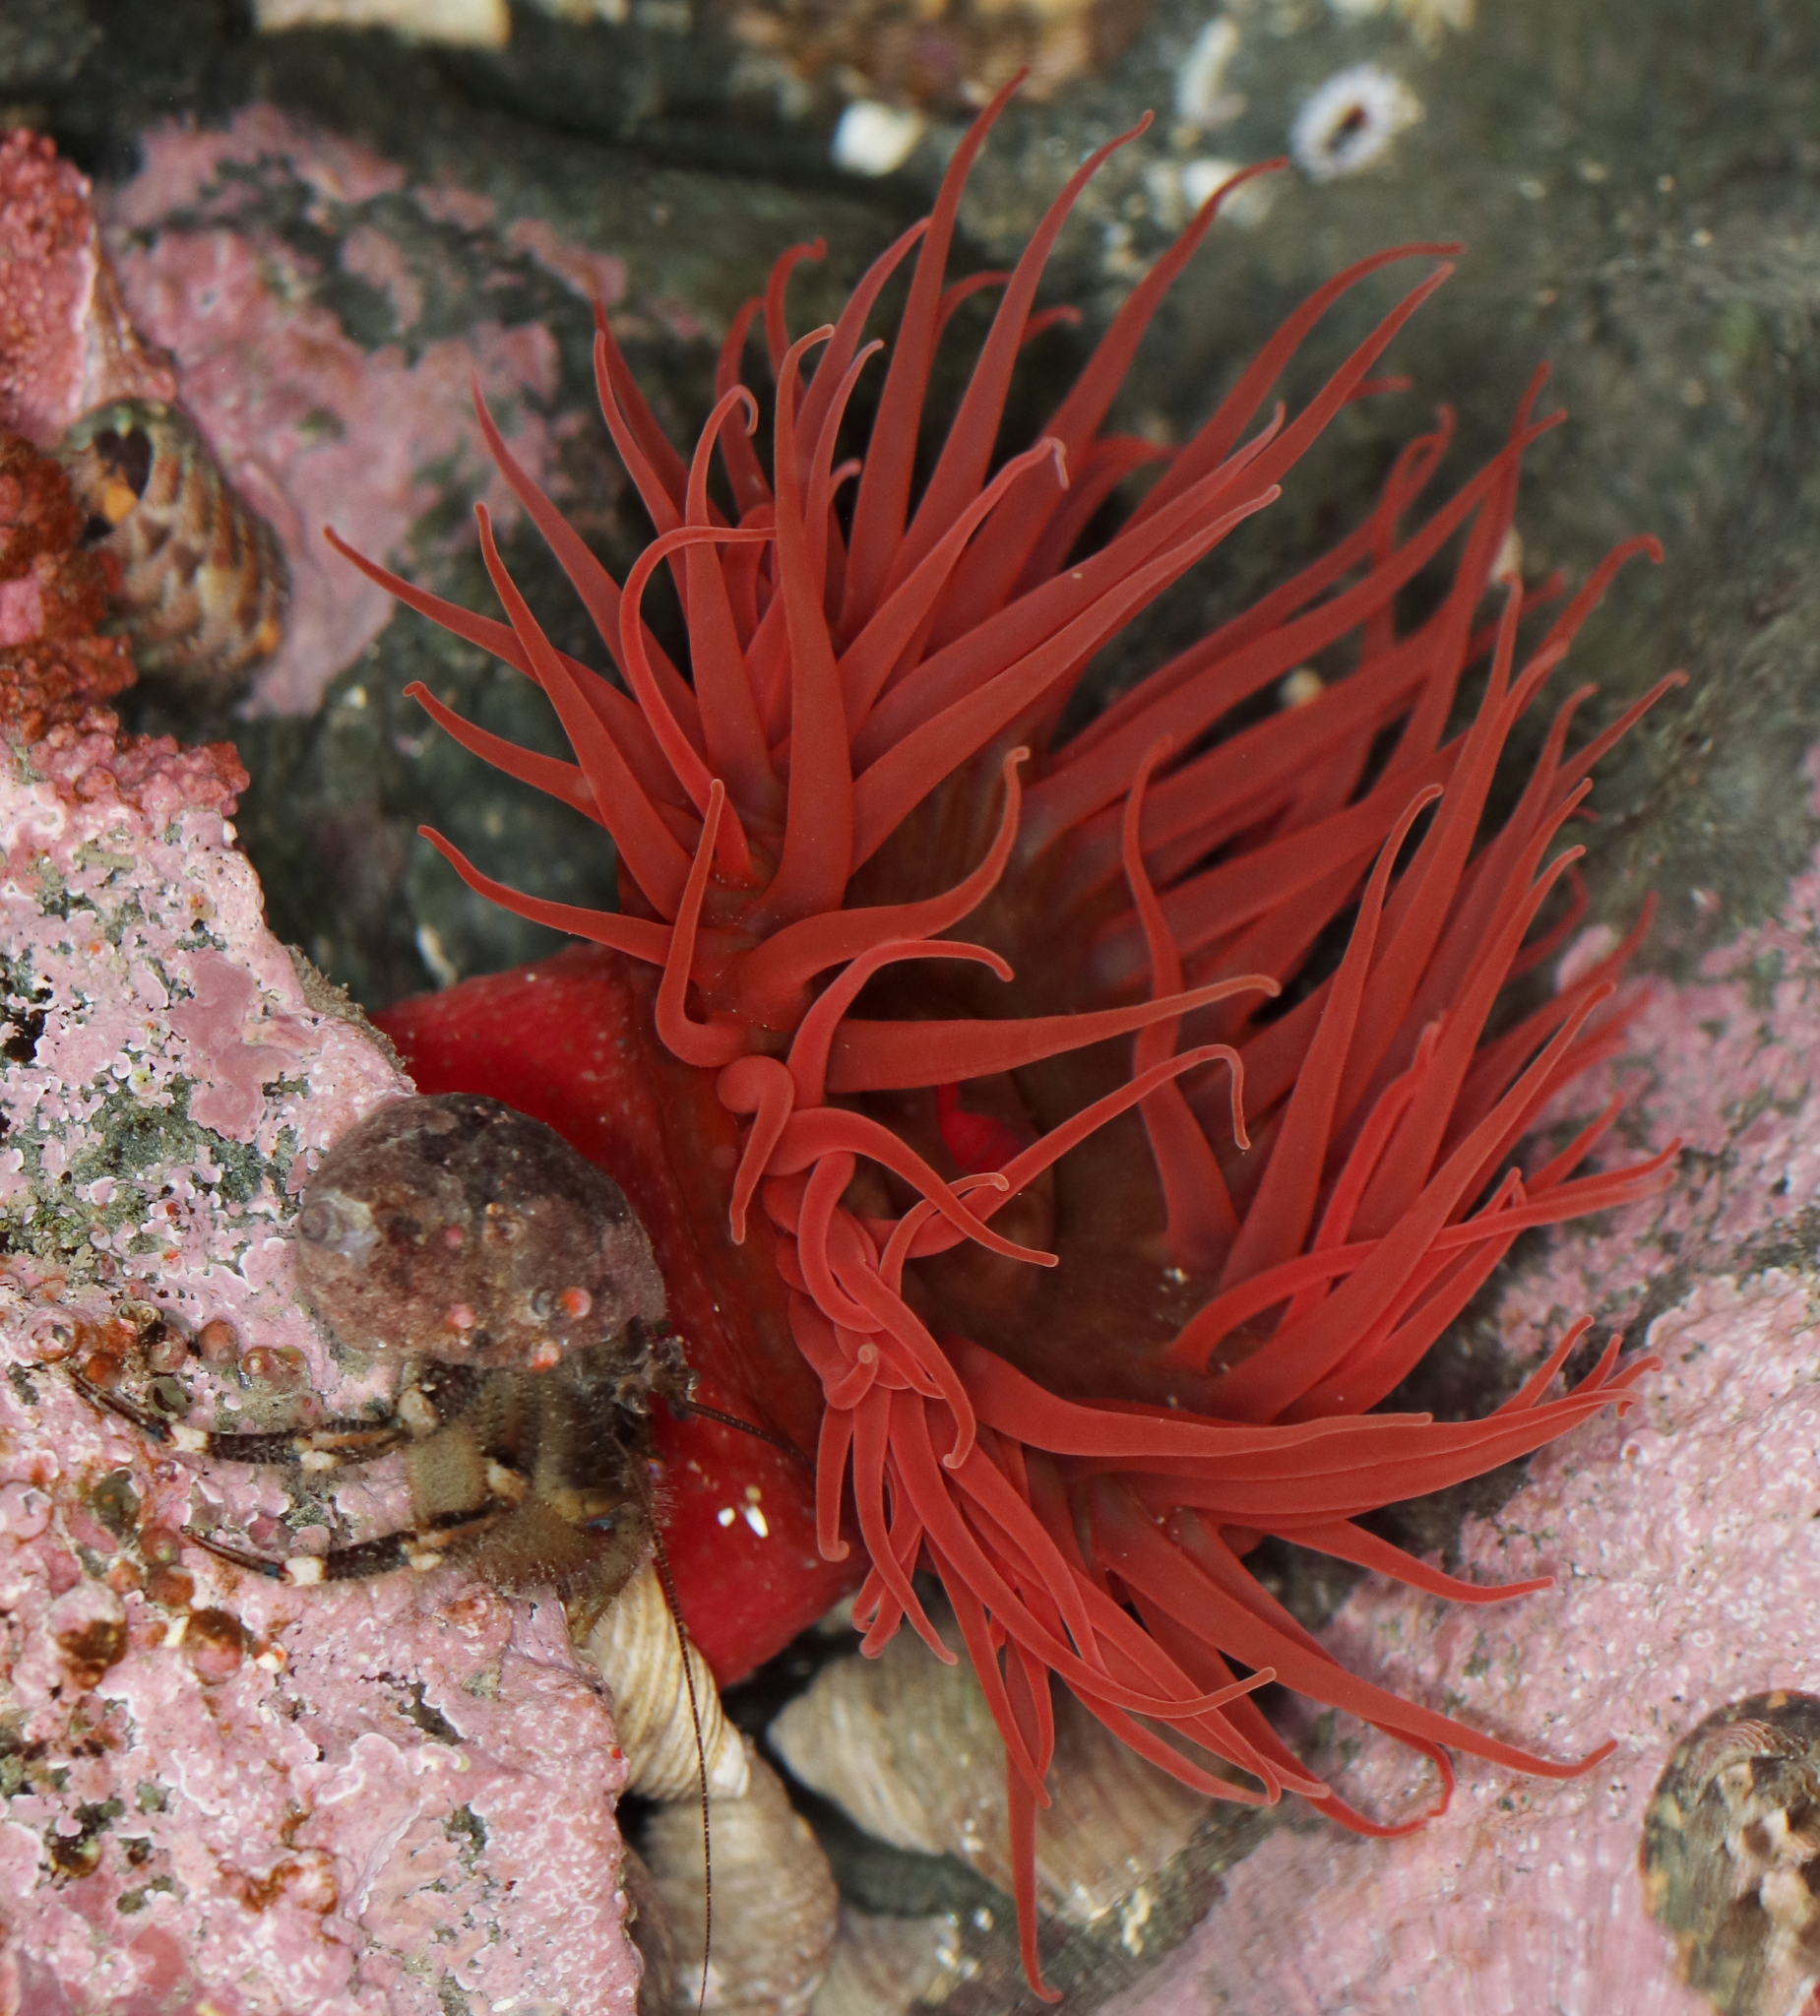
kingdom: Animalia
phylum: Cnidaria
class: Anthozoa
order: Actiniaria
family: Actiniidae
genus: Aulactinia
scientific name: Aulactinia vancouverensis
